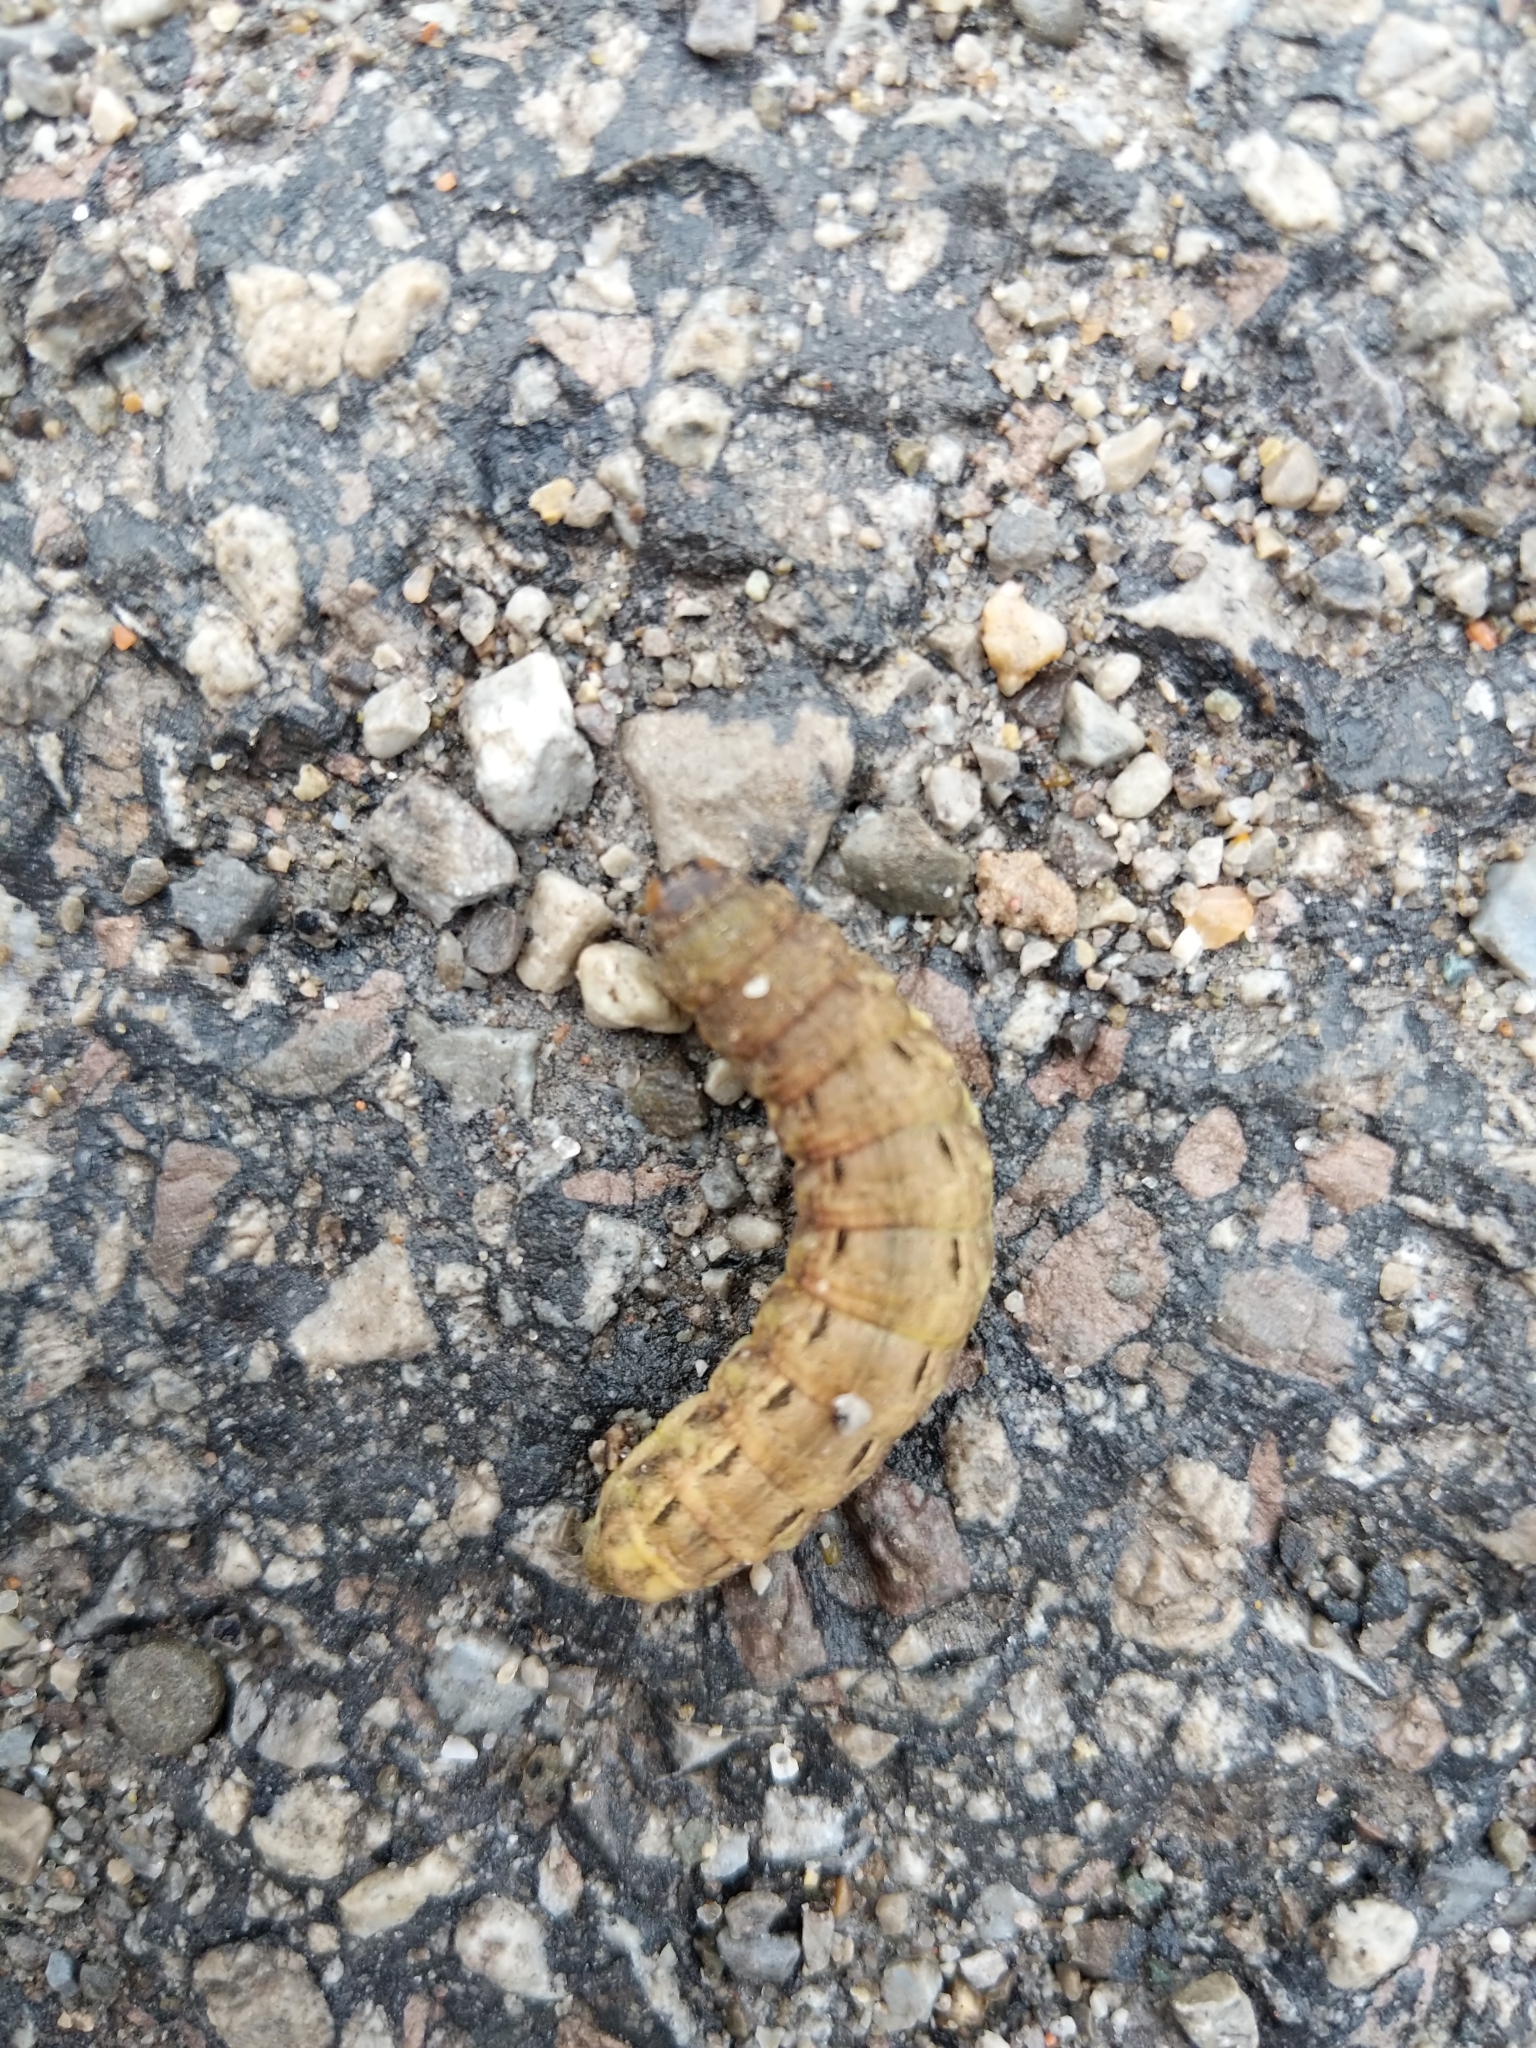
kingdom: Animalia
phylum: Arthropoda
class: Insecta
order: Lepidoptera
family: Noctuidae
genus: Noctua
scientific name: Noctua pronuba
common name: Large yellow underwing
